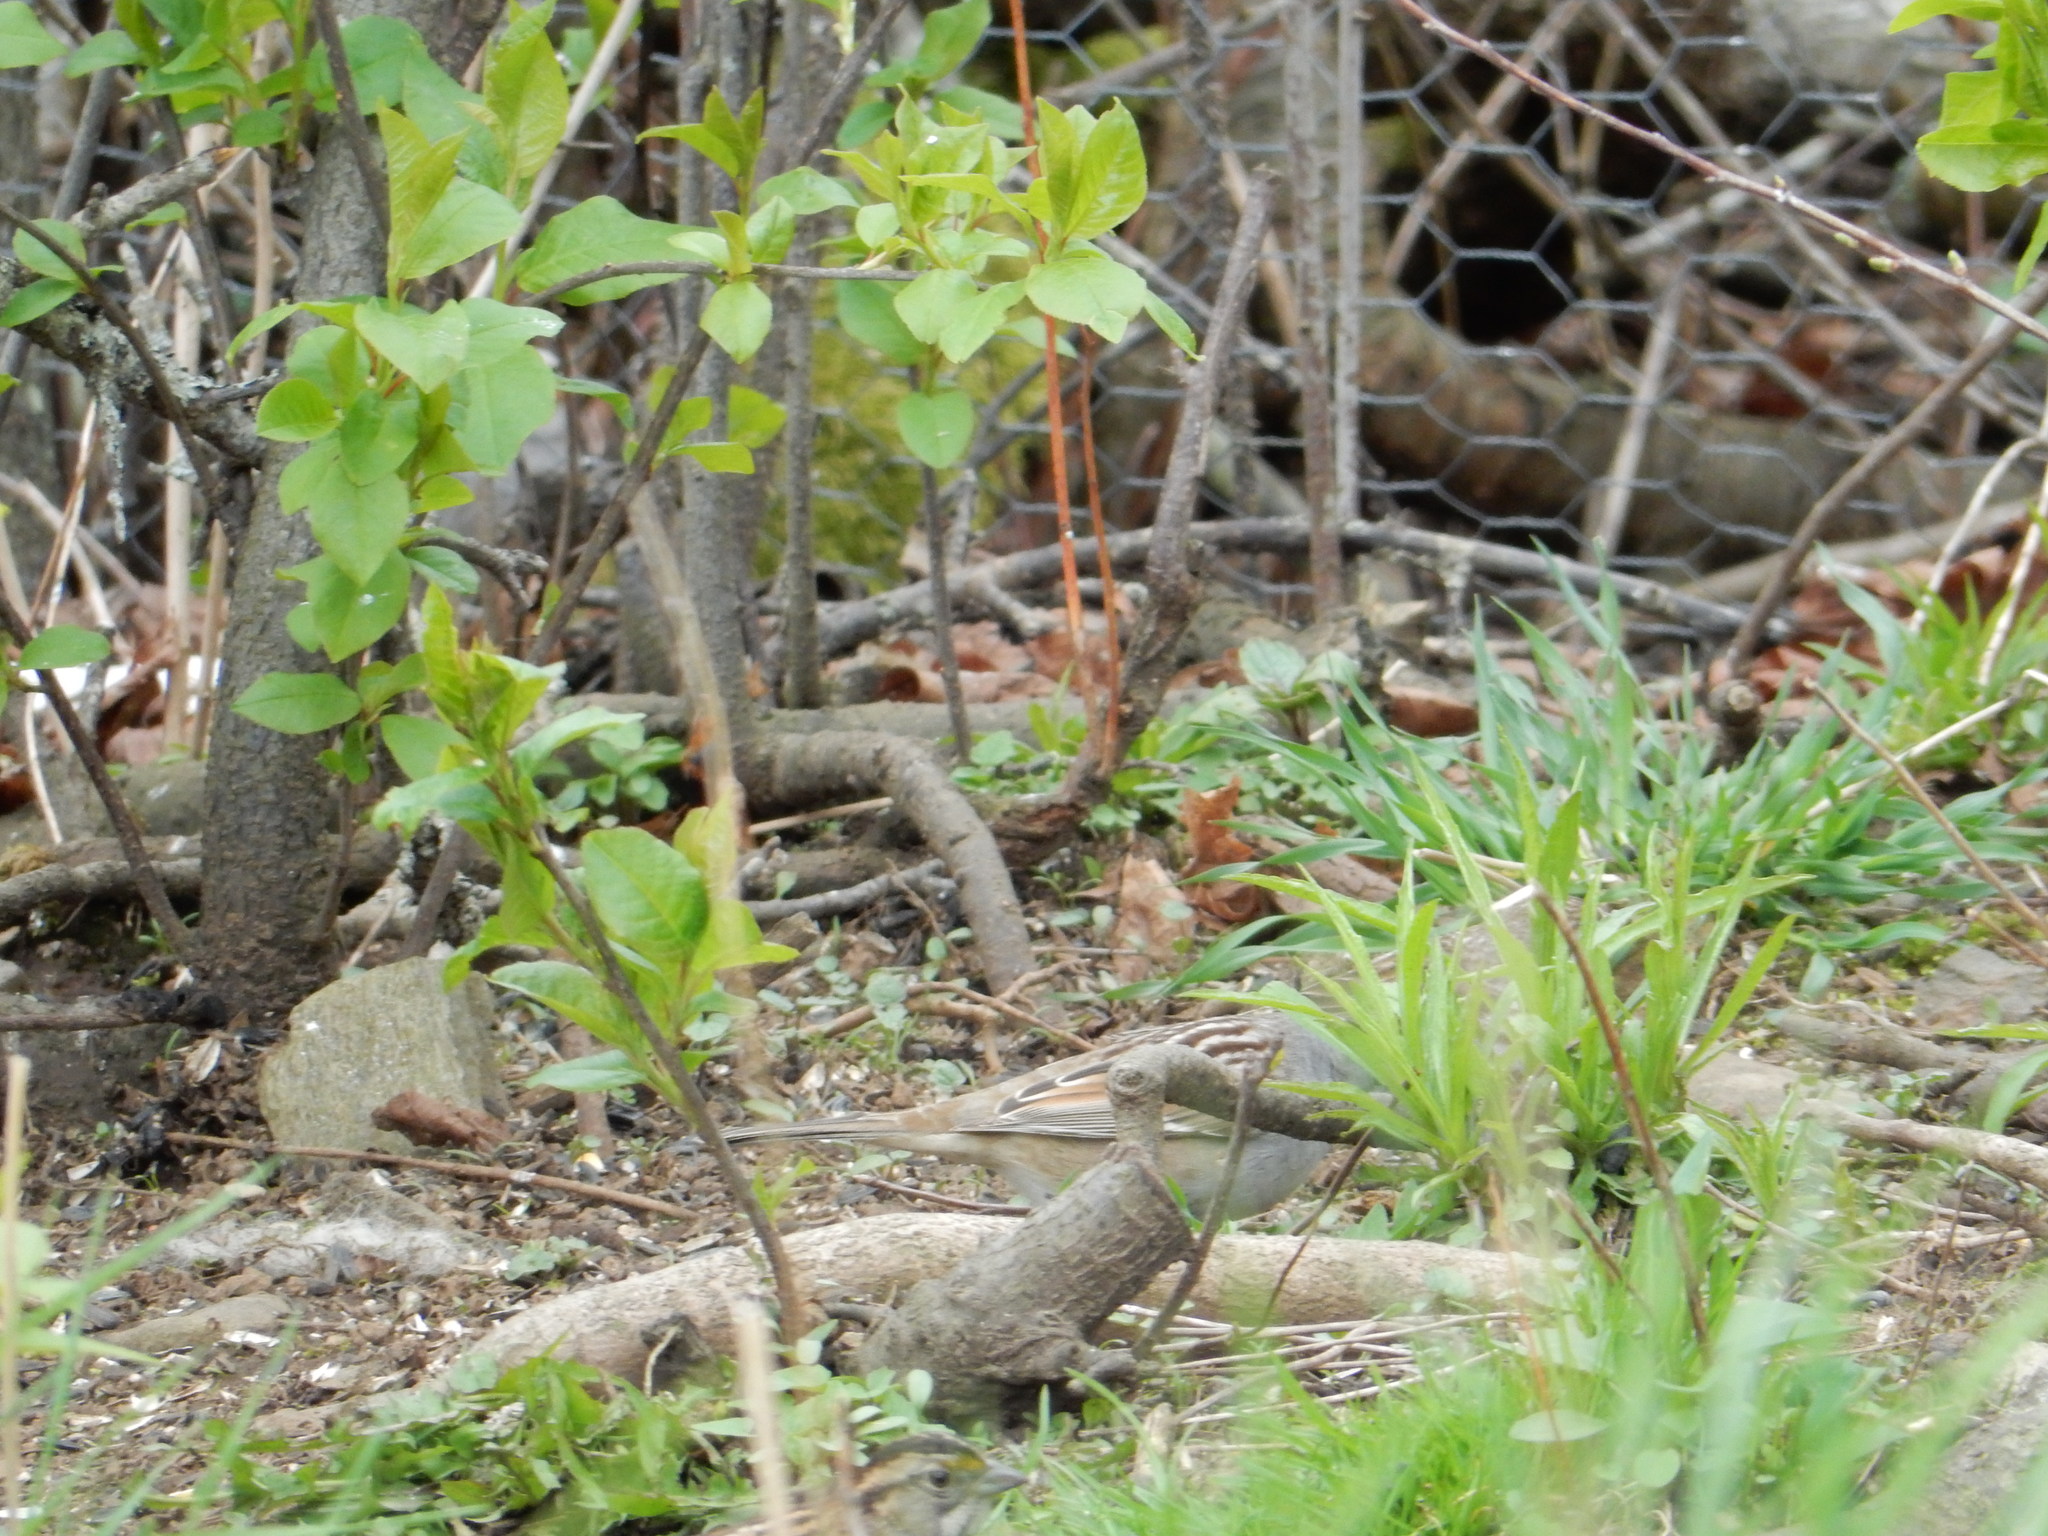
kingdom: Animalia
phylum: Chordata
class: Aves
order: Passeriformes
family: Passerellidae
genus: Zonotrichia
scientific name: Zonotrichia leucophrys
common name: White-crowned sparrow
